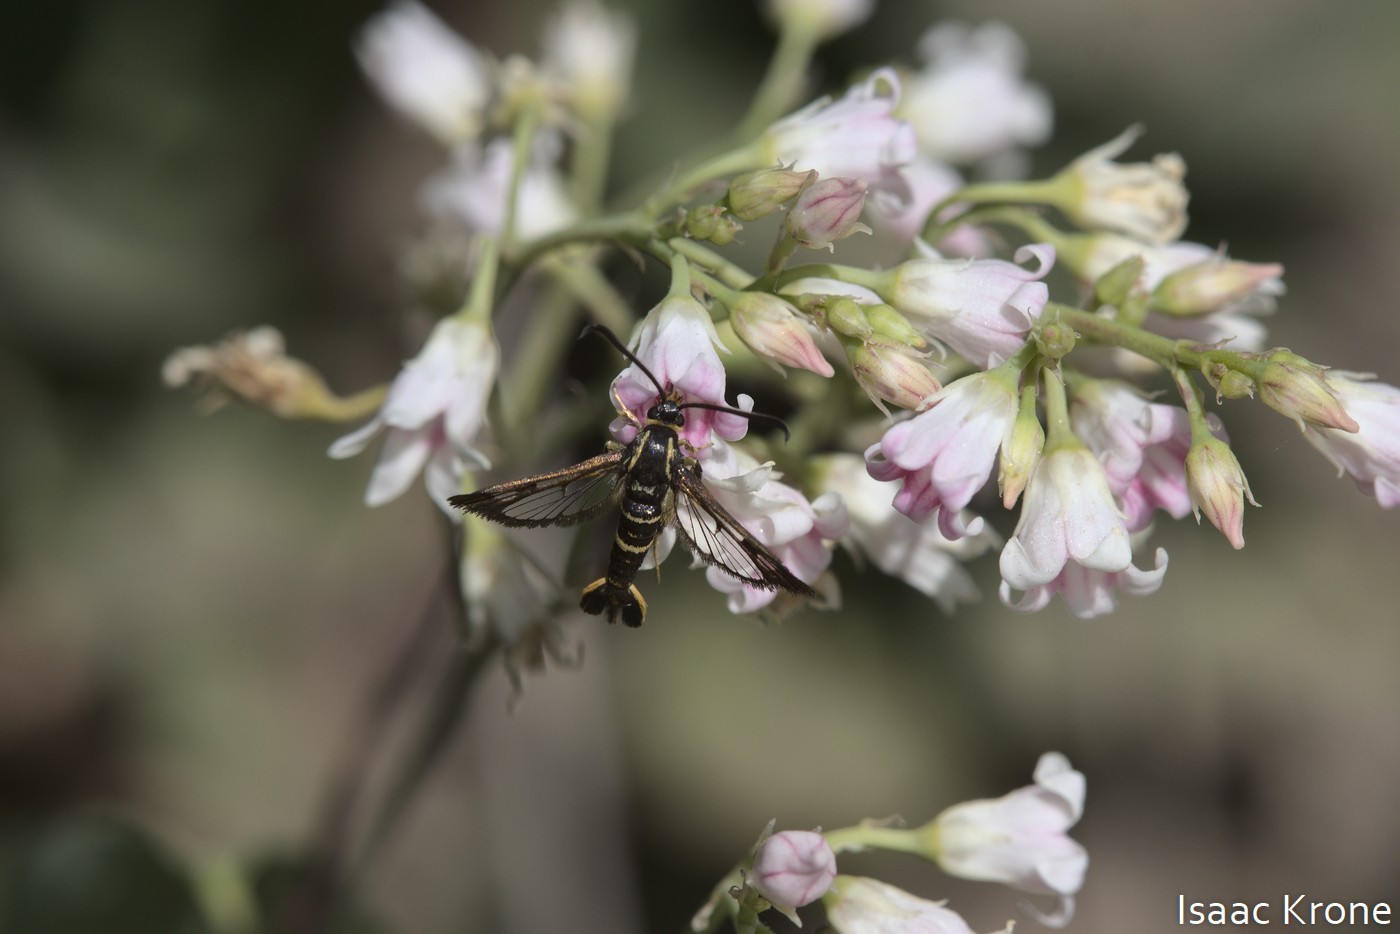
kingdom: Animalia
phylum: Arthropoda
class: Insecta
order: Lepidoptera
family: Sesiidae
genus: Synanthedon
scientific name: Synanthedon bibionipennis
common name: Strawberry crown moth
